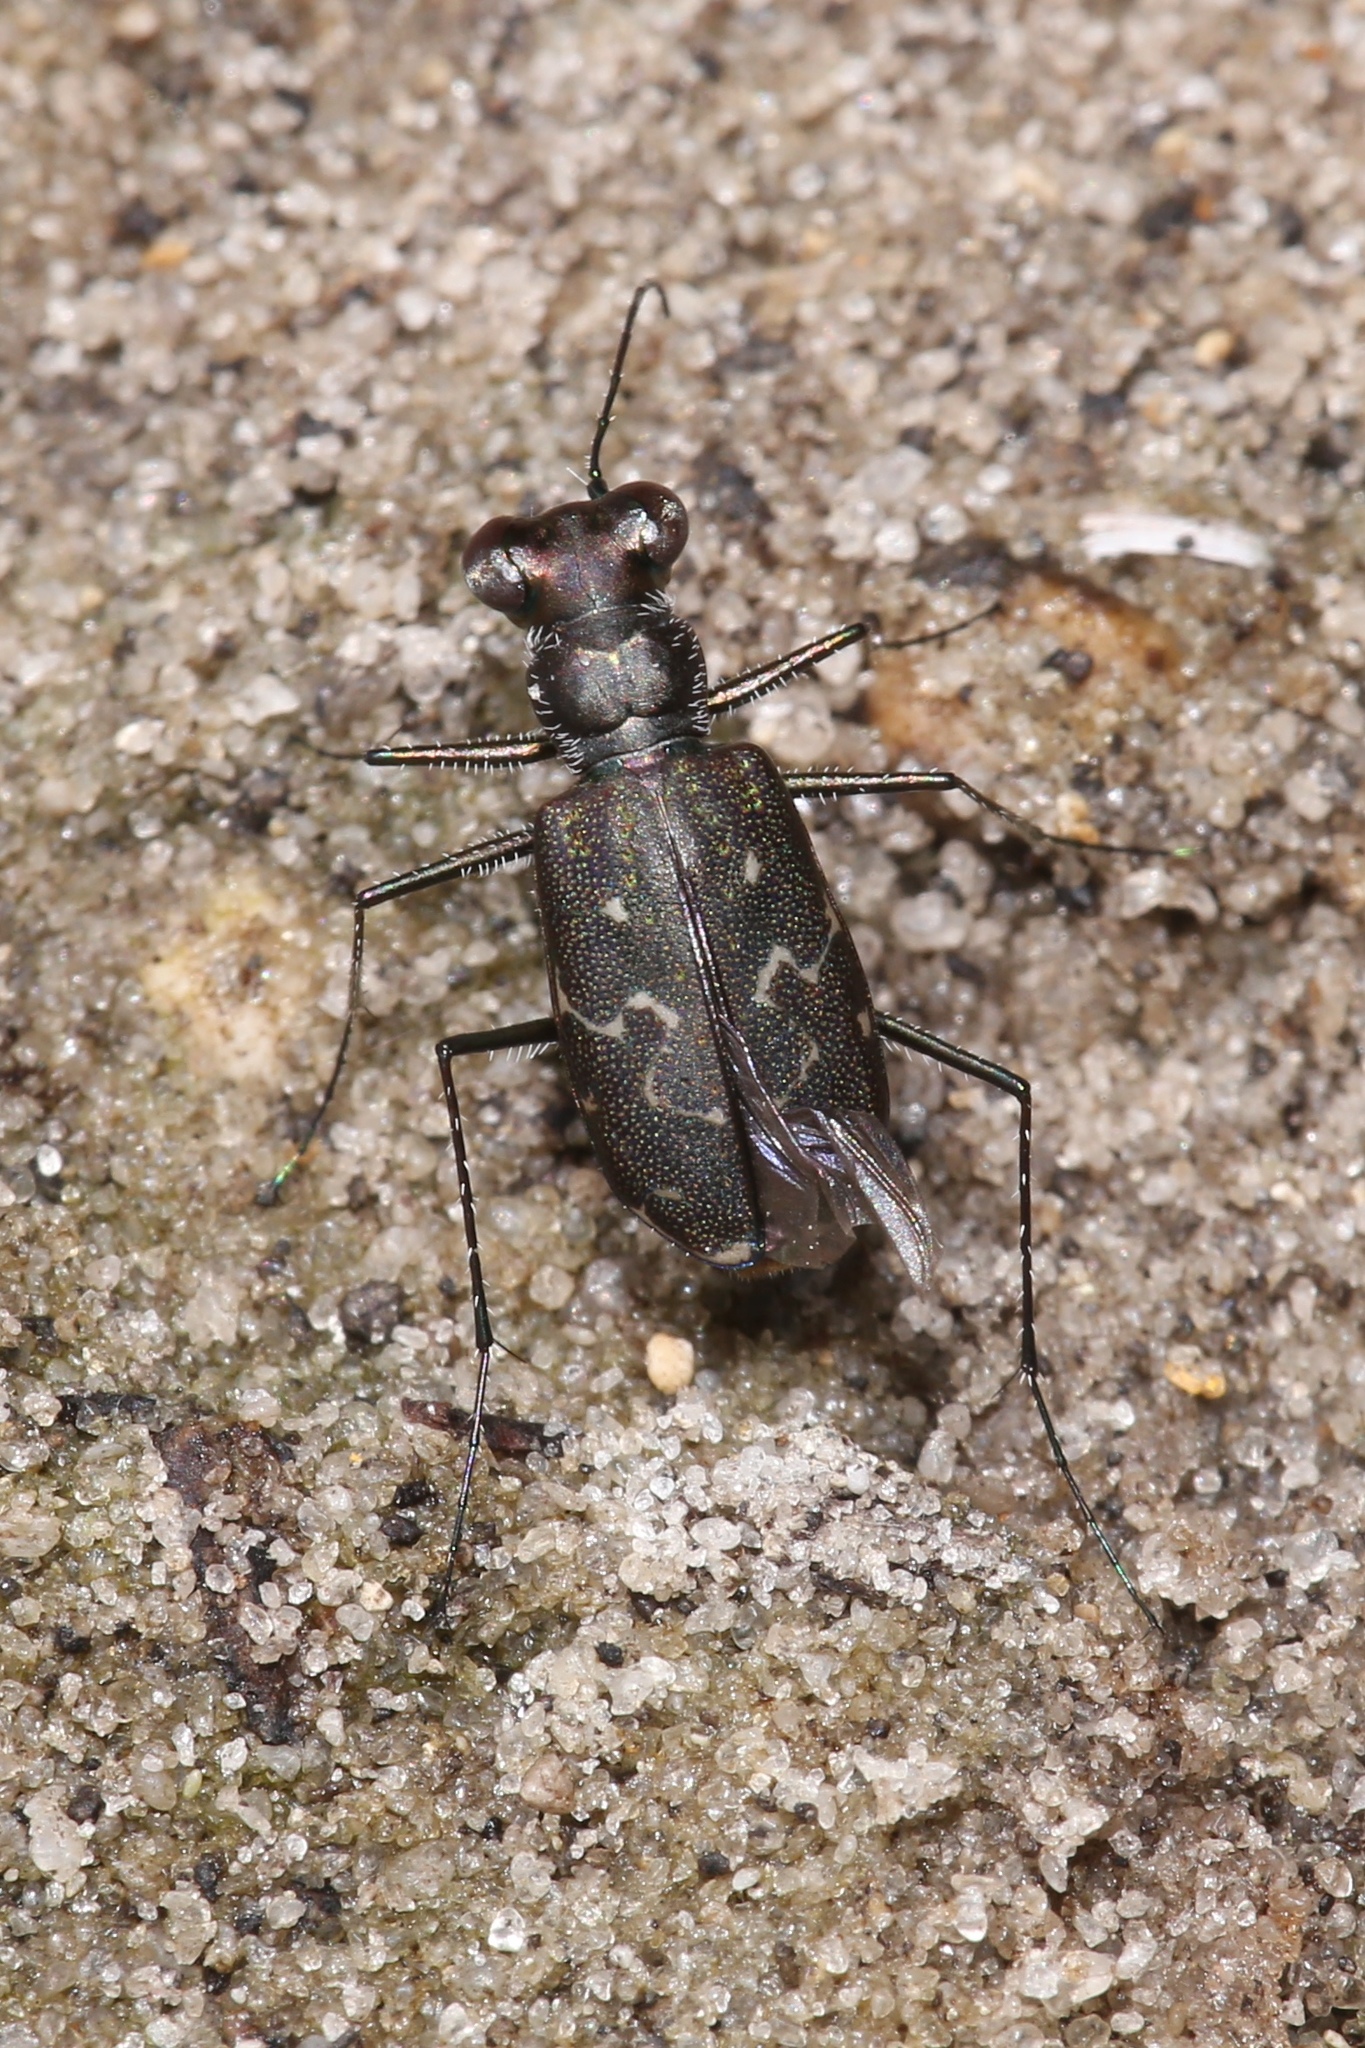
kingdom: Animalia
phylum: Arthropoda
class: Insecta
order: Coleoptera
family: Carabidae
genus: Cicindela
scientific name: Cicindela trifasciata
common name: Mudflat tiger beetle
